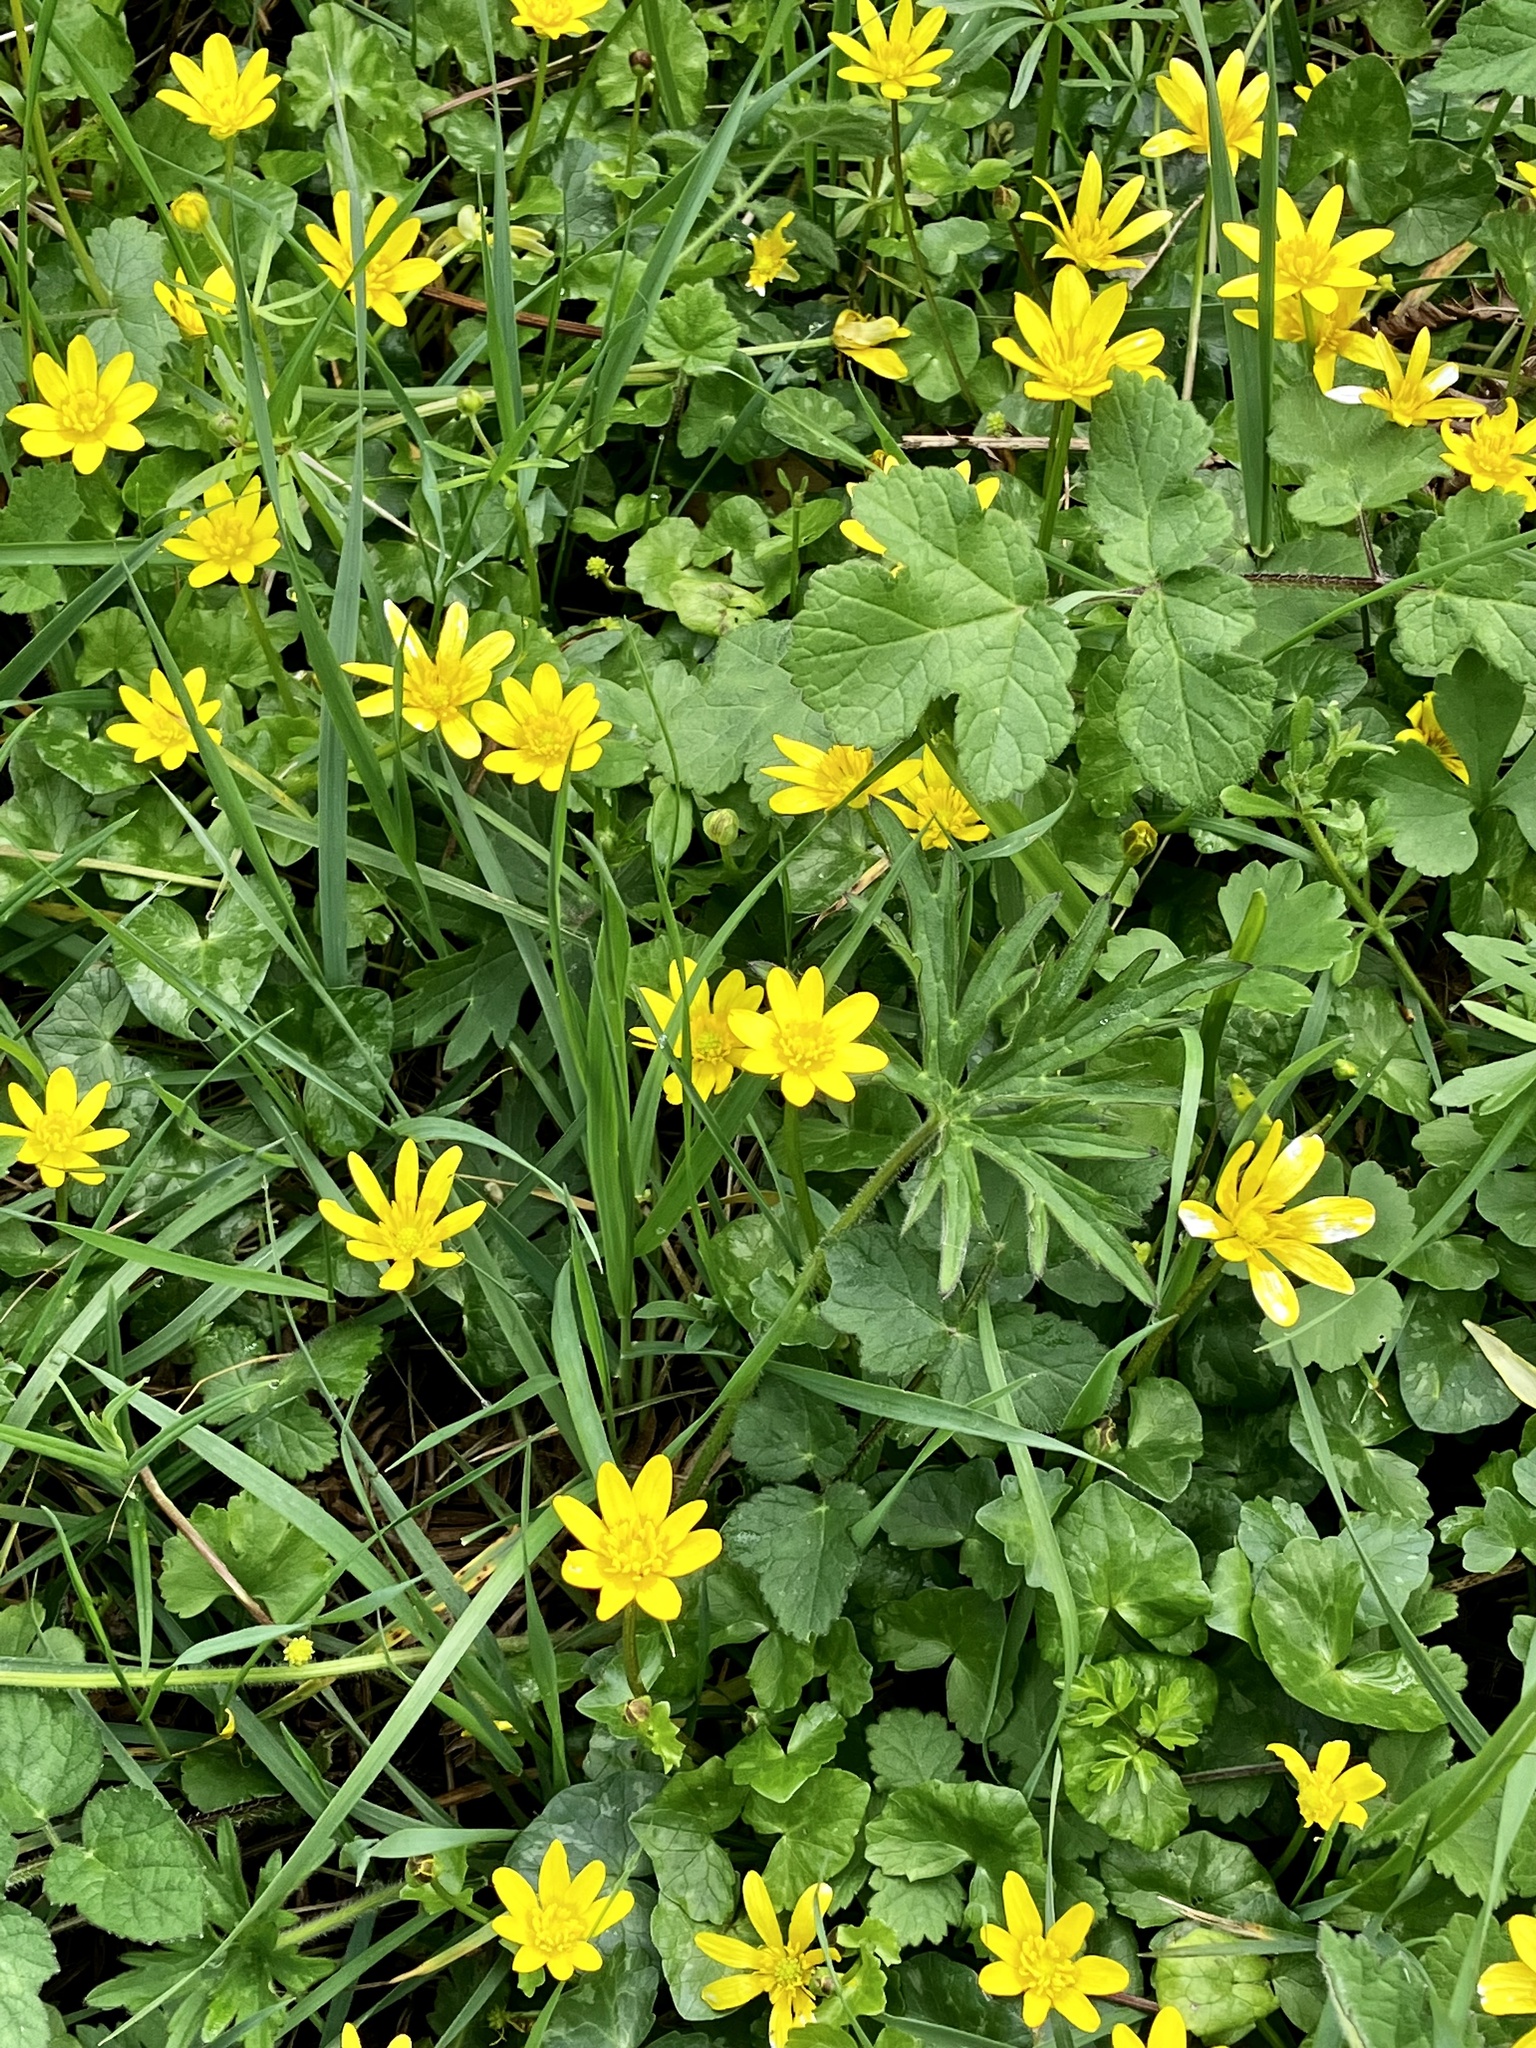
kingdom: Plantae
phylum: Tracheophyta
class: Magnoliopsida
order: Ranunculales
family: Ranunculaceae
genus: Ficaria
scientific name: Ficaria verna
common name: Lesser celandine
